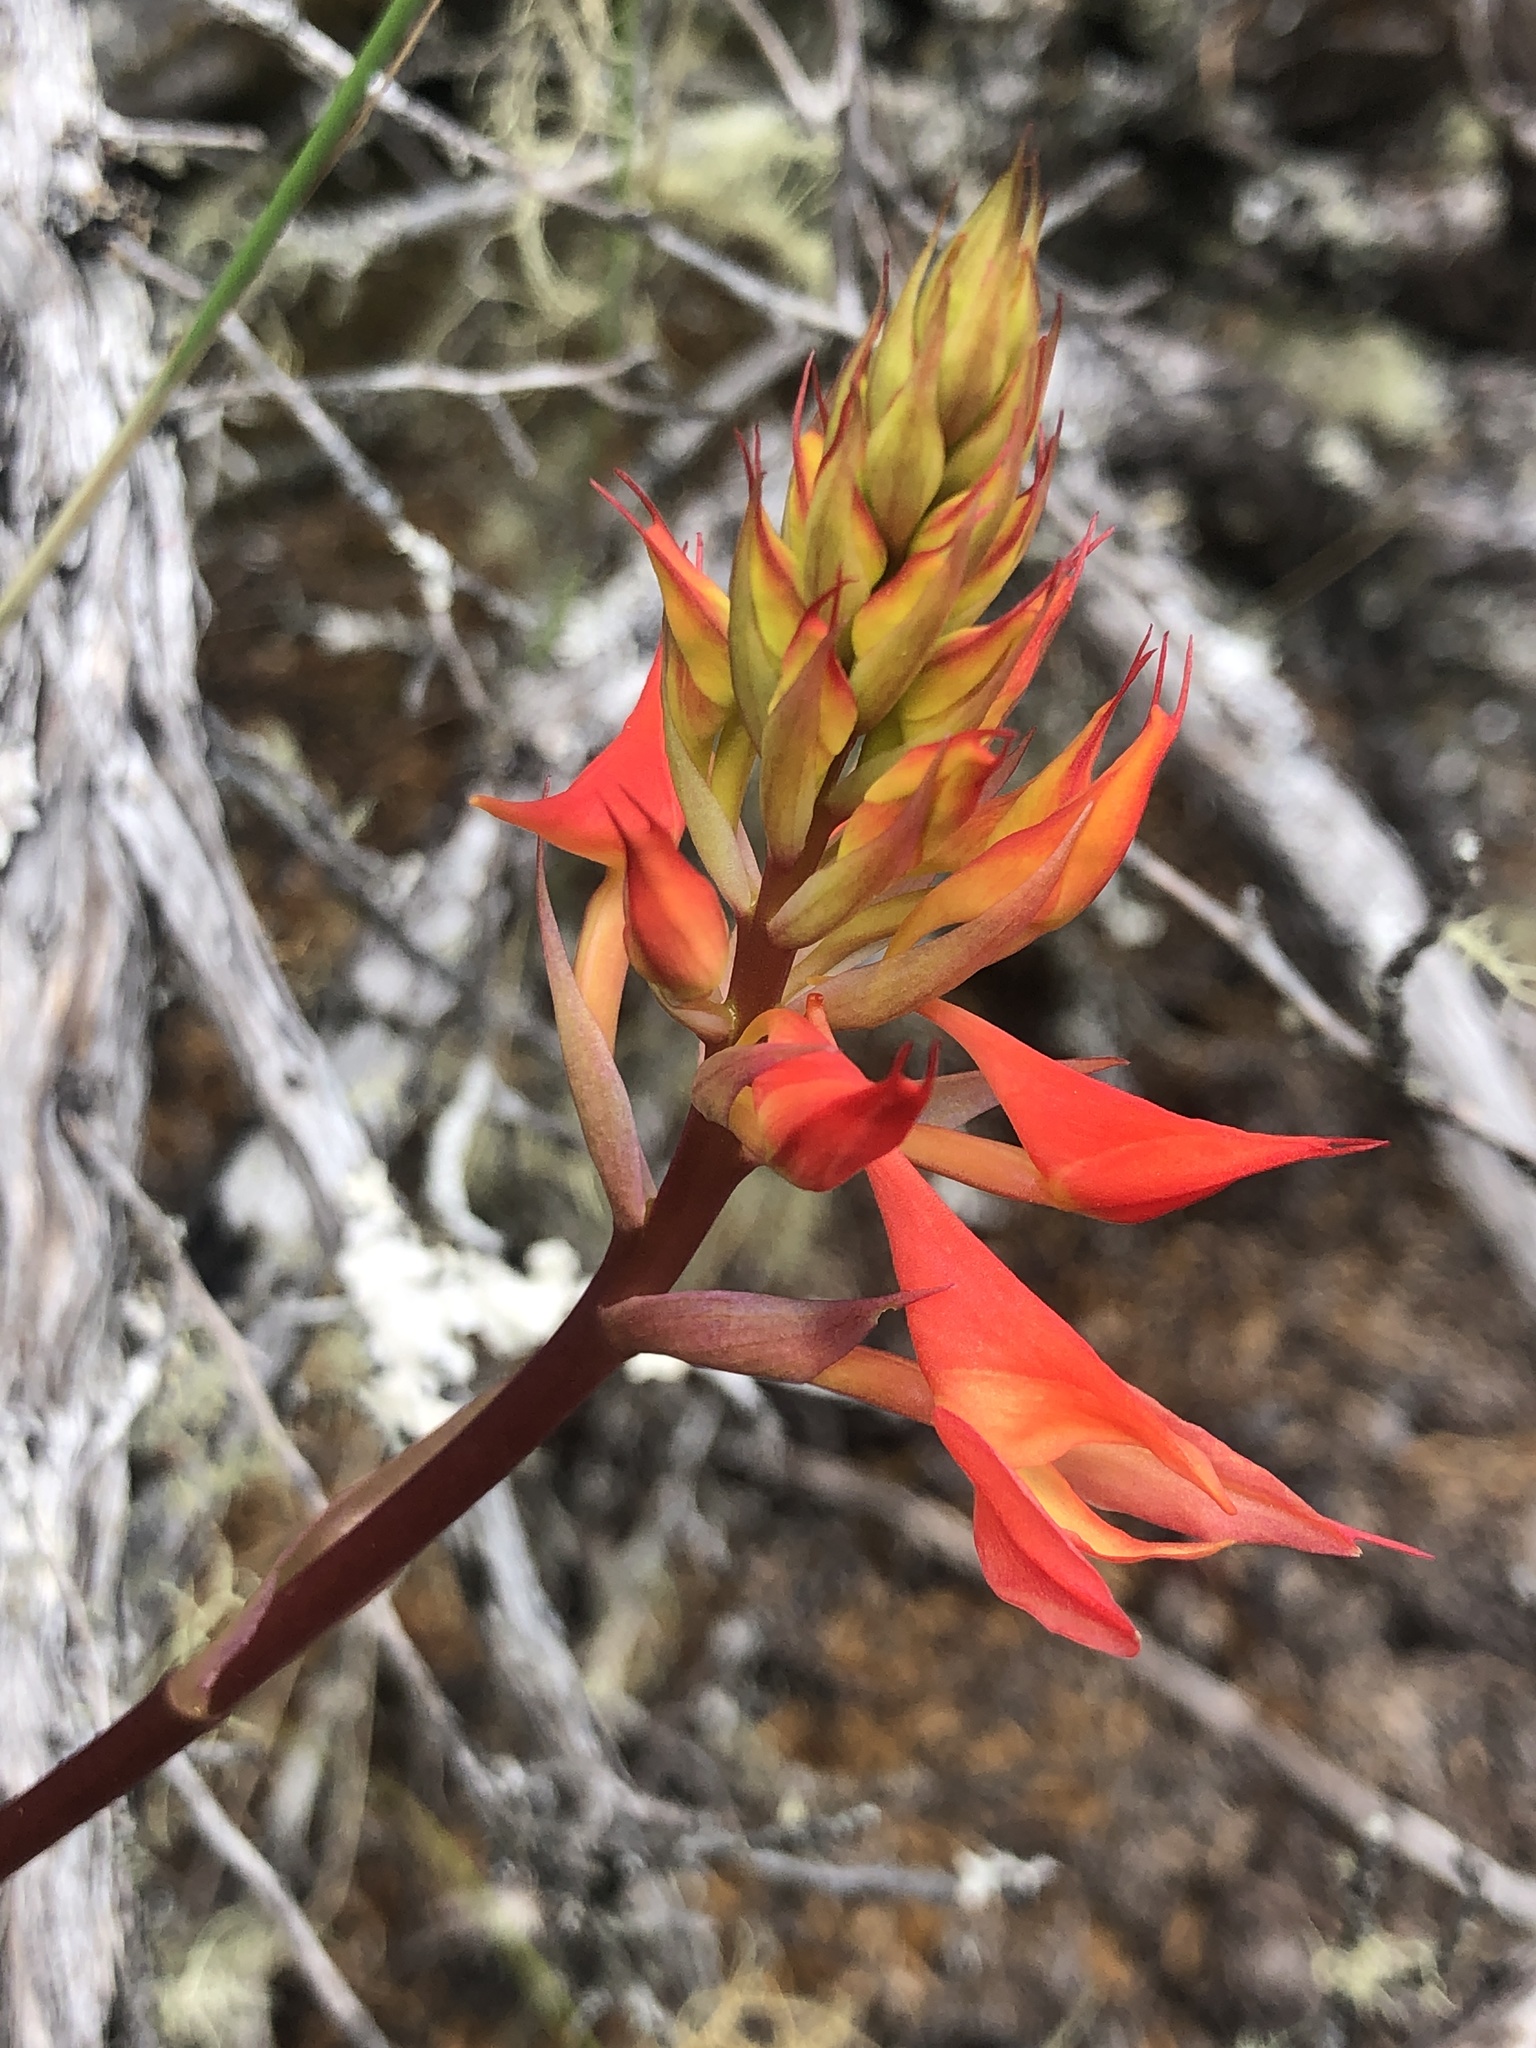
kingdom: Plantae
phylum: Tracheophyta
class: Liliopsida
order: Asparagales
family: Orchidaceae
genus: Disa
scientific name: Disa ferruginea
